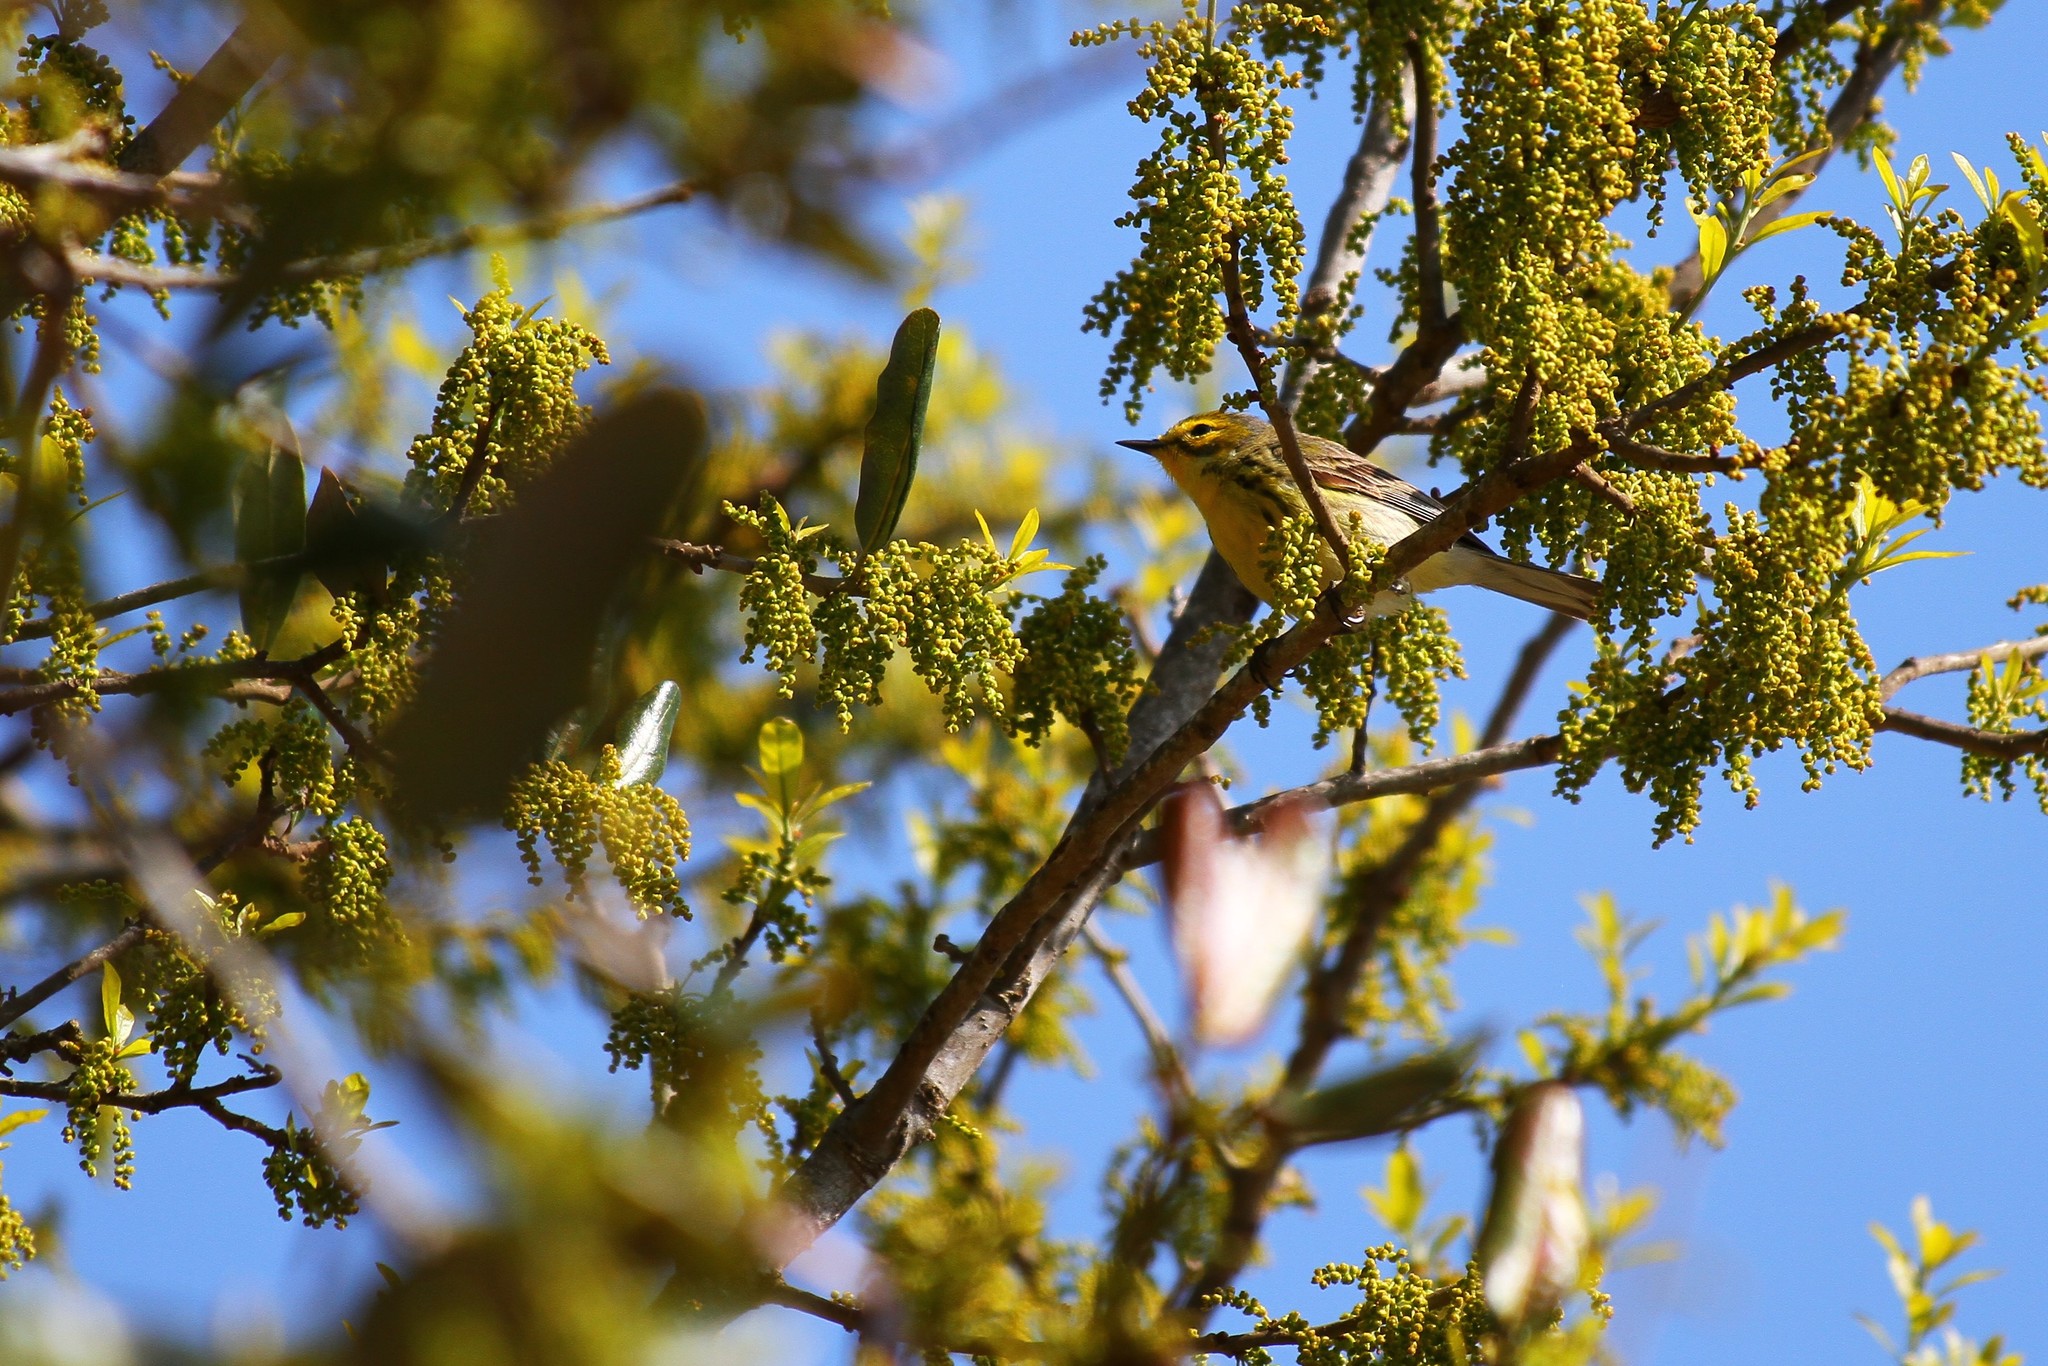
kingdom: Animalia
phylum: Chordata
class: Aves
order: Passeriformes
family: Parulidae
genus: Setophaga
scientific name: Setophaga discolor
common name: Prairie warbler
